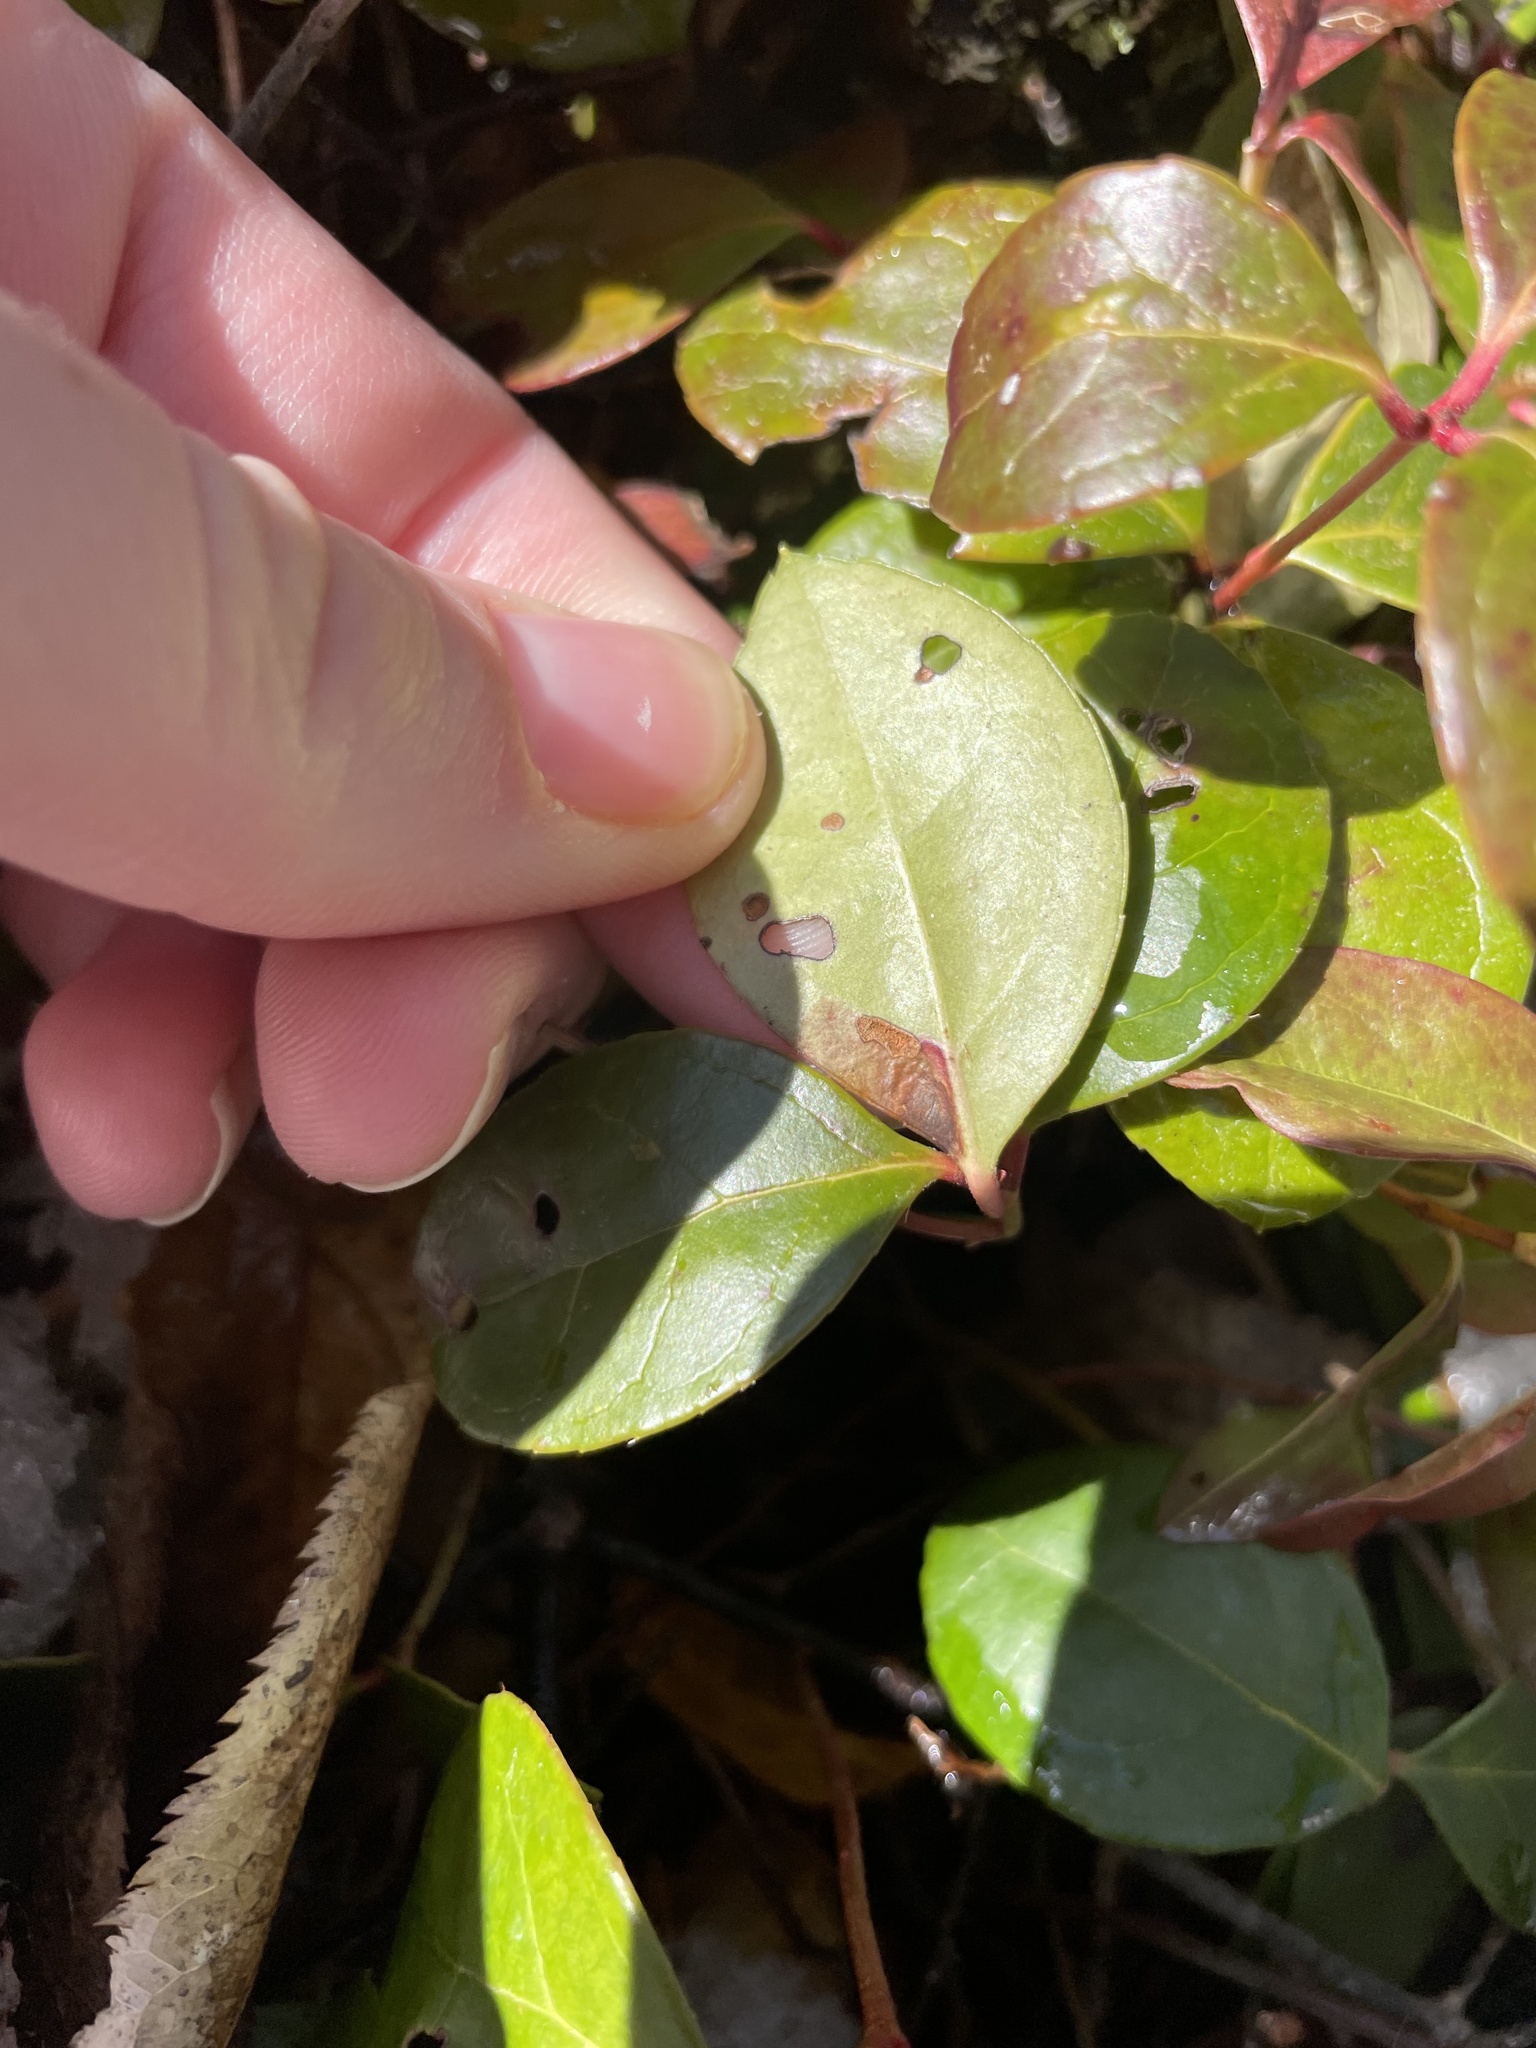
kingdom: Plantae
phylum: Tracheophyta
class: Magnoliopsida
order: Ericales
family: Ericaceae
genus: Gaultheria
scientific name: Gaultheria procumbens
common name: Checkerberry
